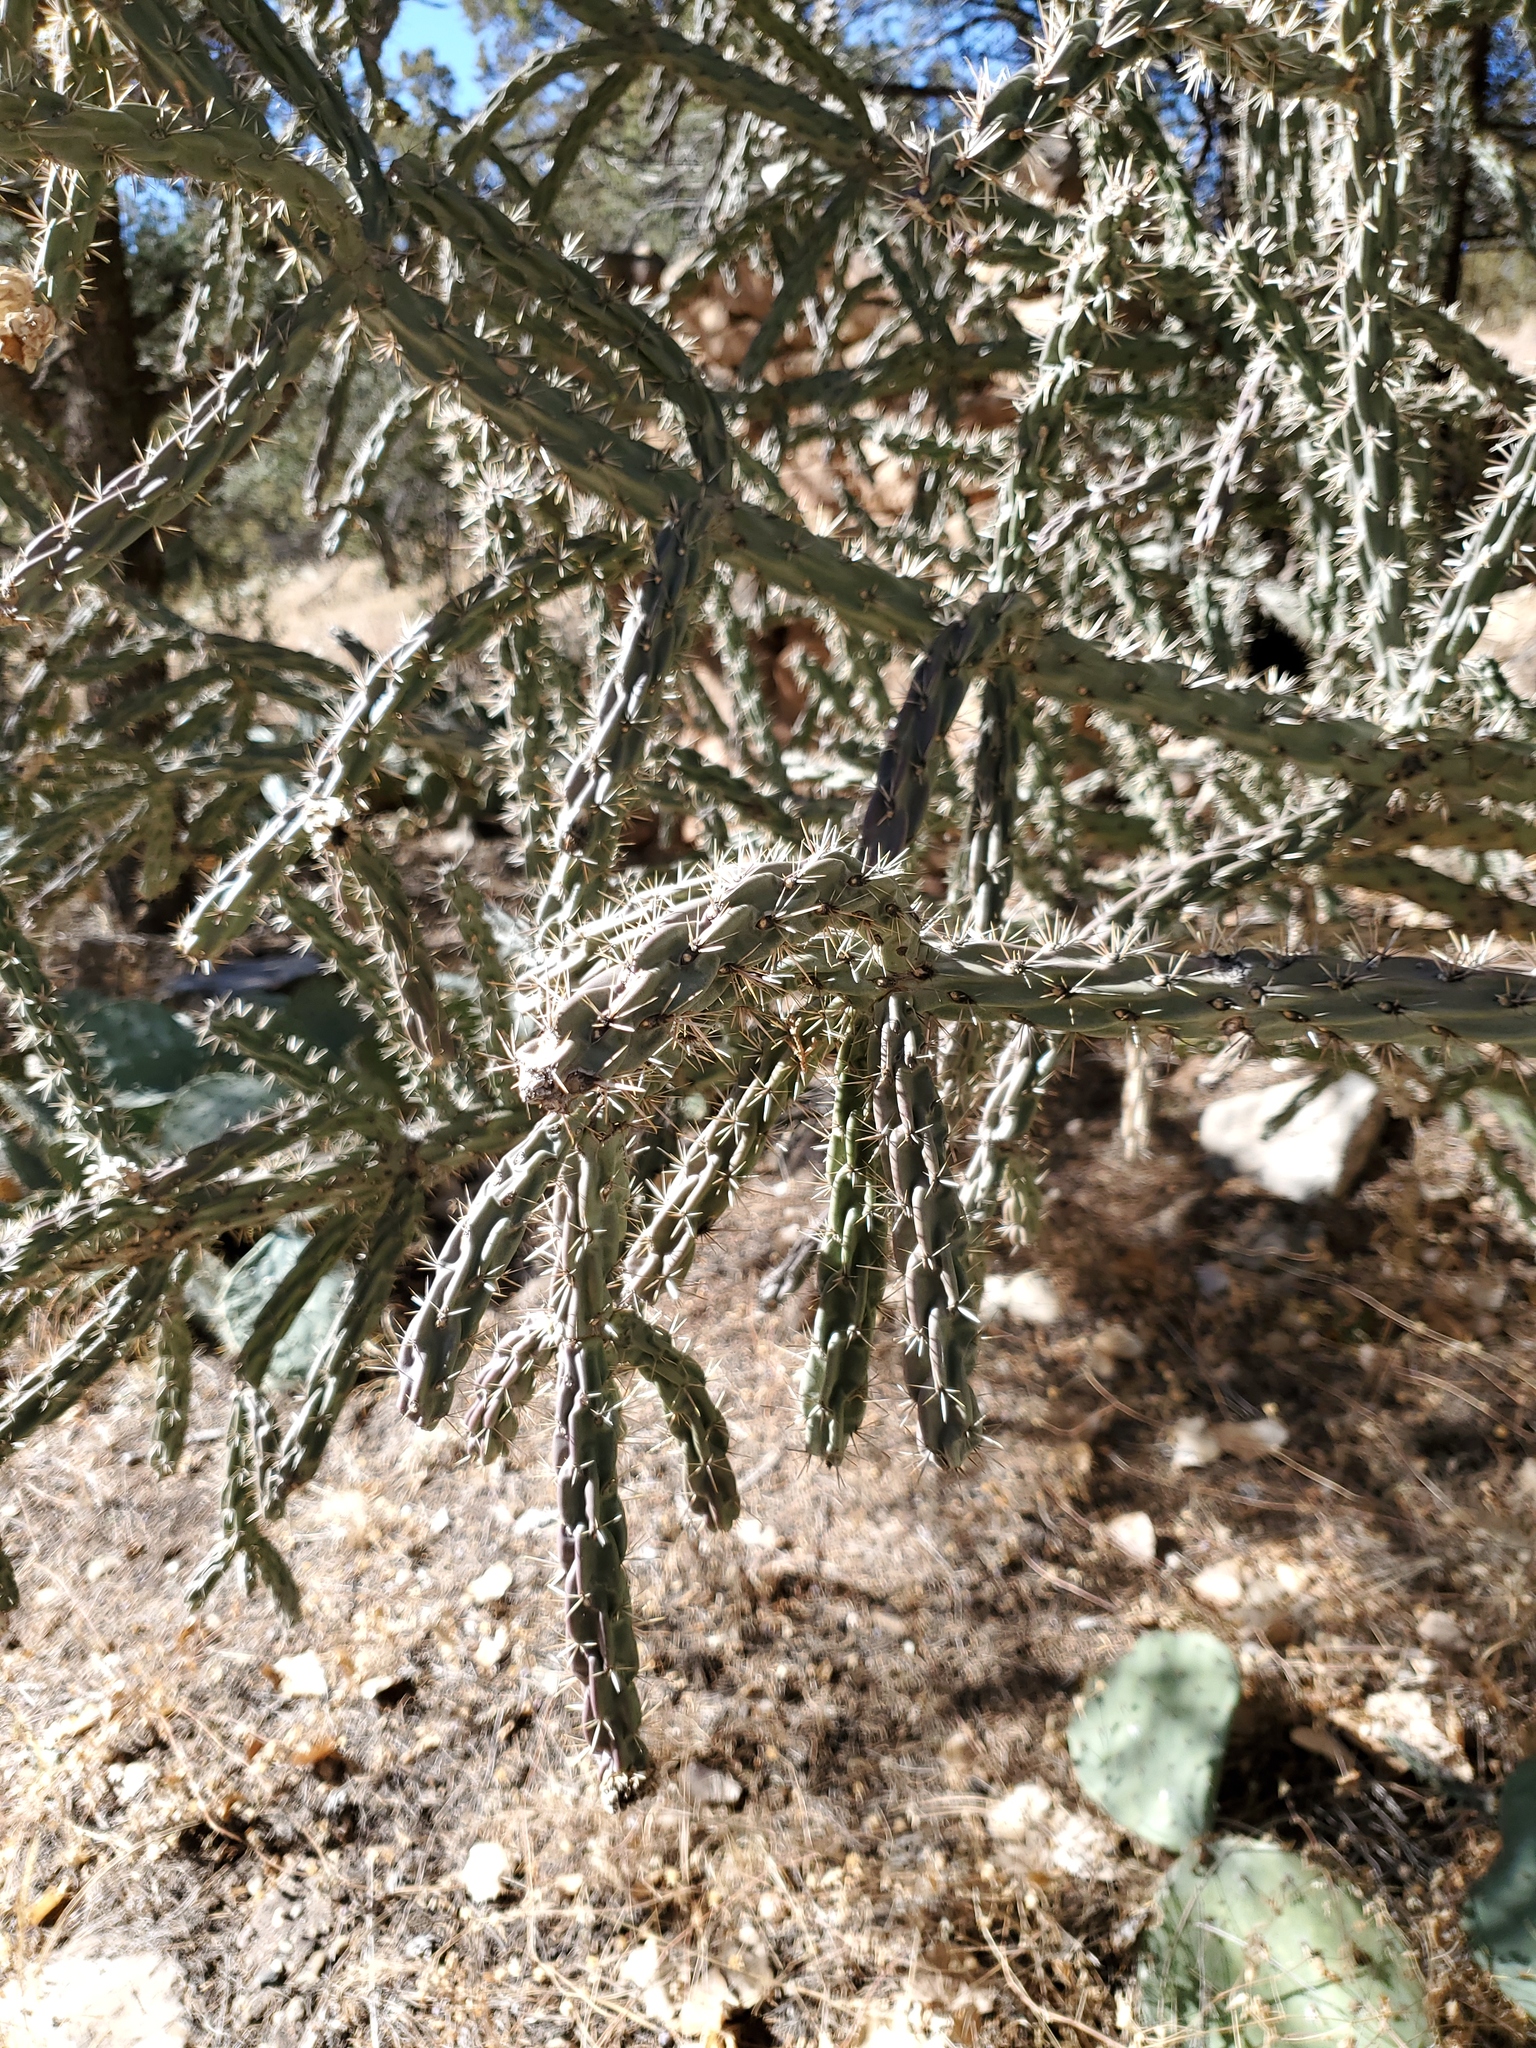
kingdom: Plantae
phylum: Tracheophyta
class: Magnoliopsida
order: Caryophyllales
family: Cactaceae
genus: Cylindropuntia
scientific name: Cylindropuntia imbricata
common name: Candelabrum cactus
